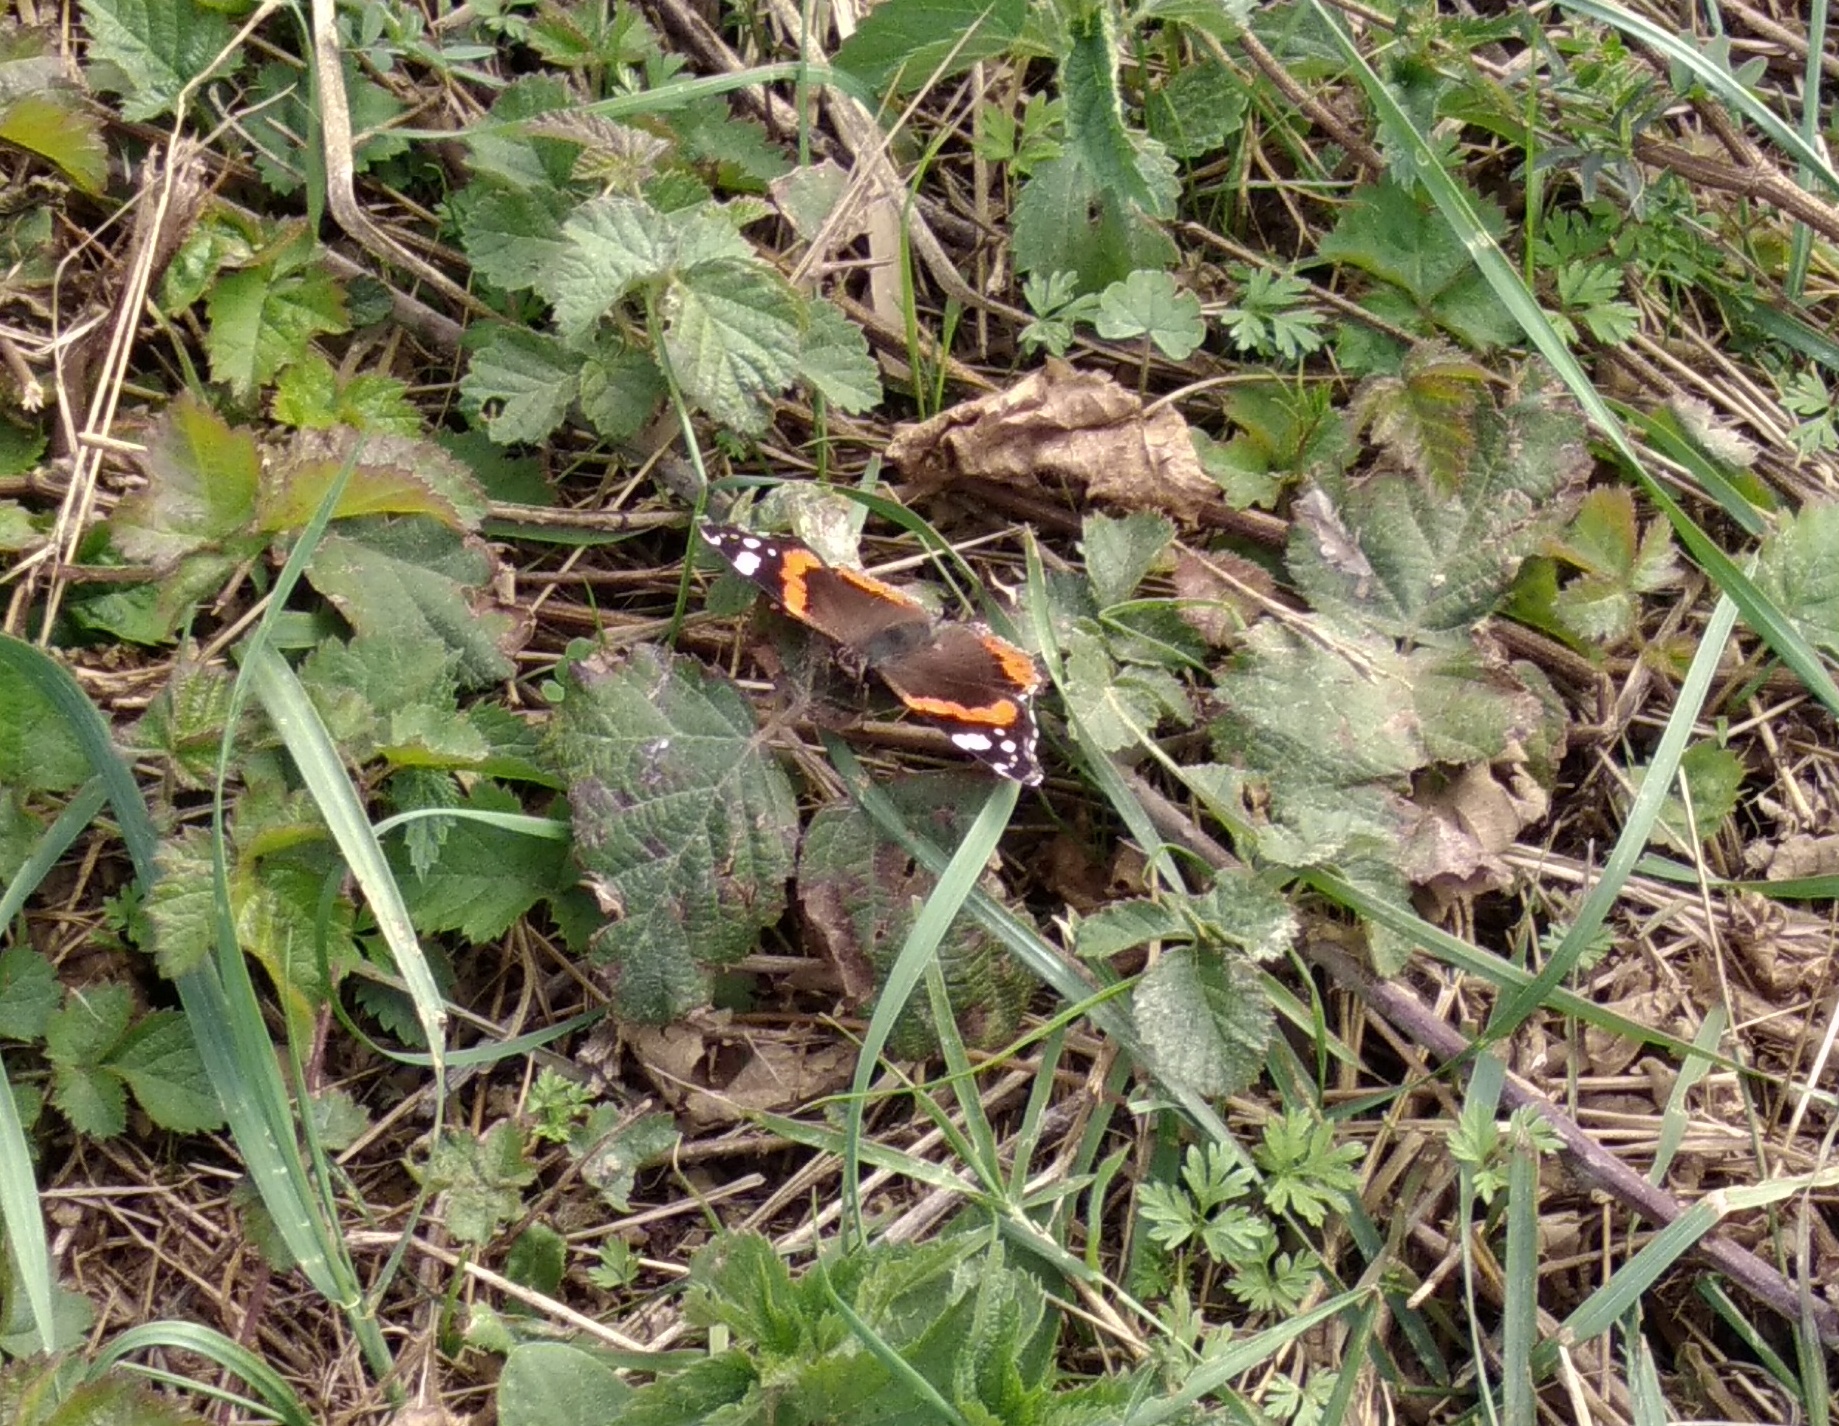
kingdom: Animalia
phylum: Arthropoda
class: Insecta
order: Lepidoptera
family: Nymphalidae
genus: Vanessa
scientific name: Vanessa atalanta
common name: Red admiral
